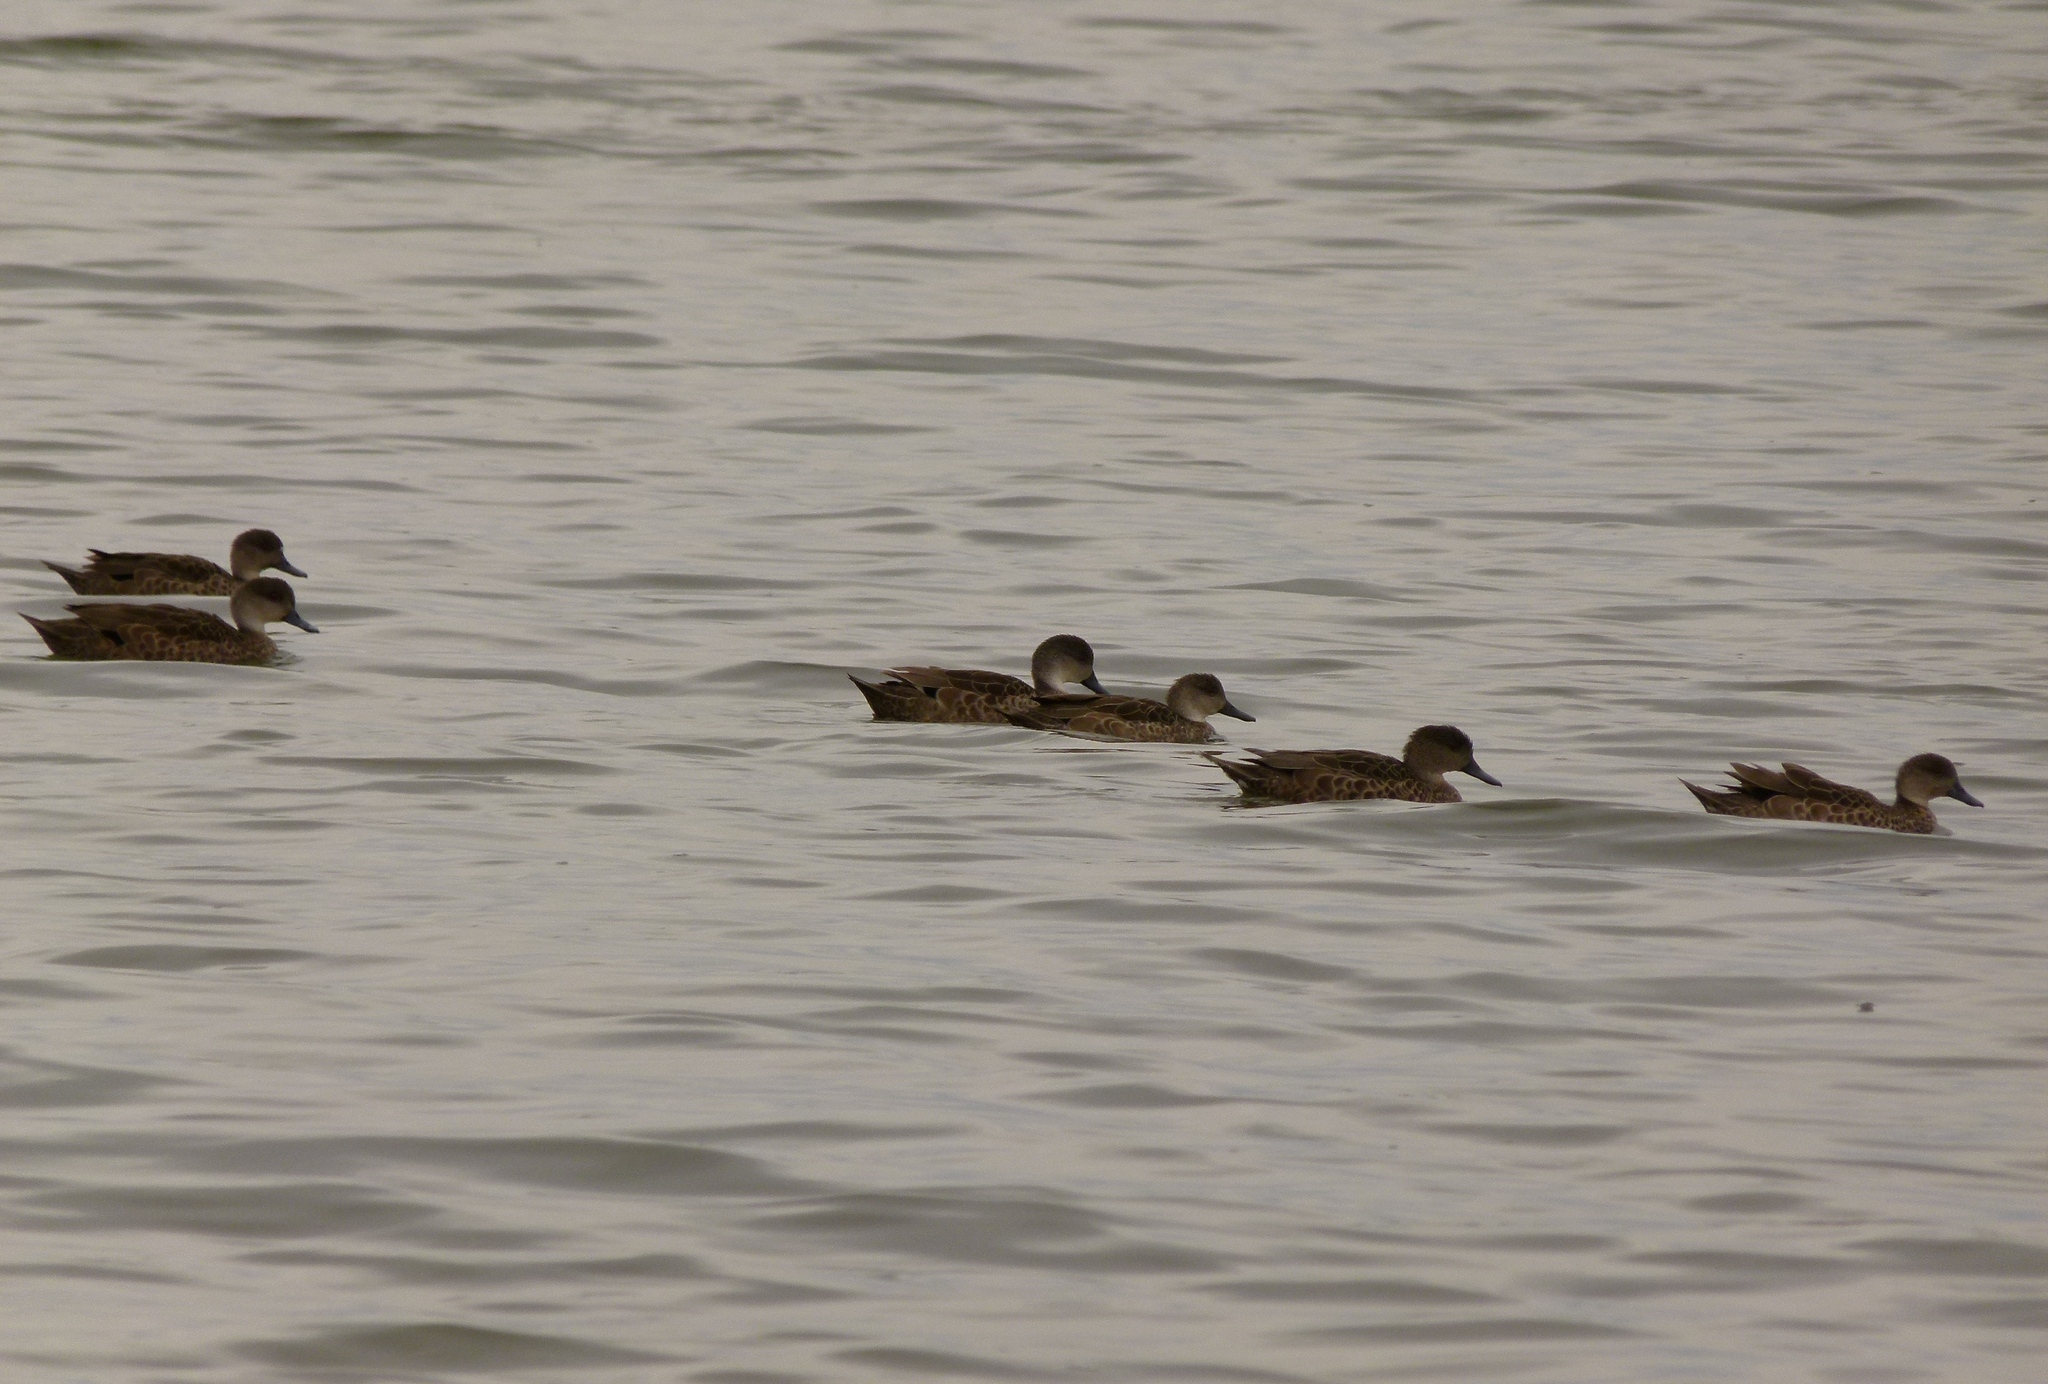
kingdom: Animalia
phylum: Chordata
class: Aves
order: Anseriformes
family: Anatidae
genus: Anas
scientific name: Anas gracilis
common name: Grey teal
